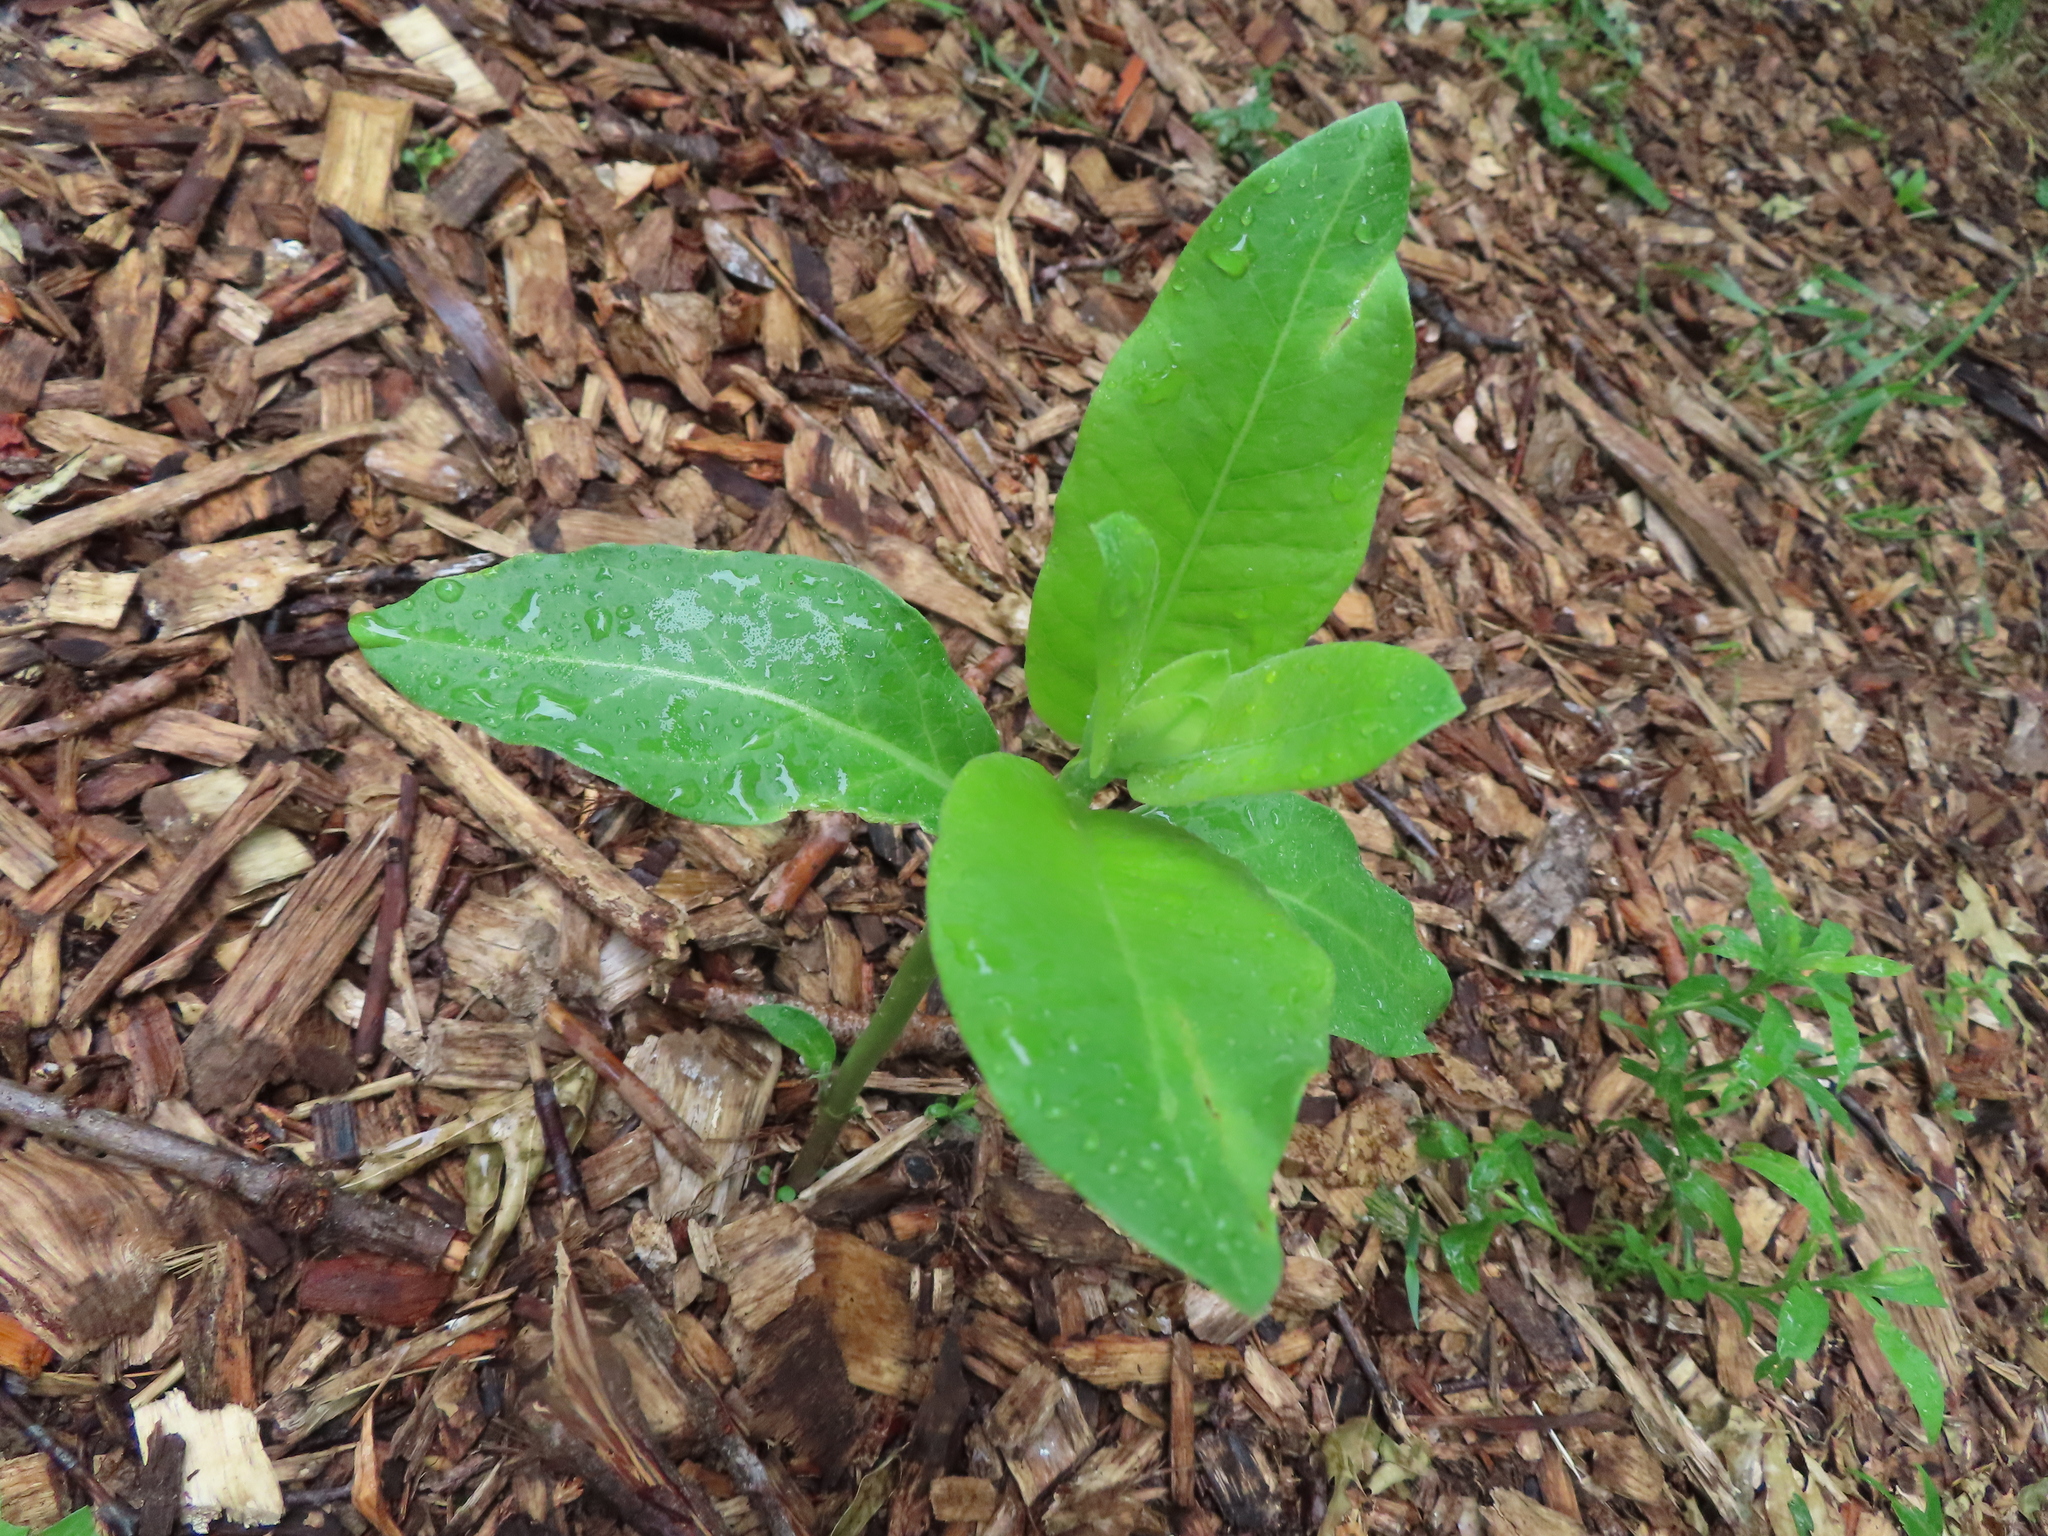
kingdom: Plantae
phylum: Tracheophyta
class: Magnoliopsida
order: Gentianales
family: Apocynaceae
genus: Asclepias
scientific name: Asclepias syriaca
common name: Common milkweed
